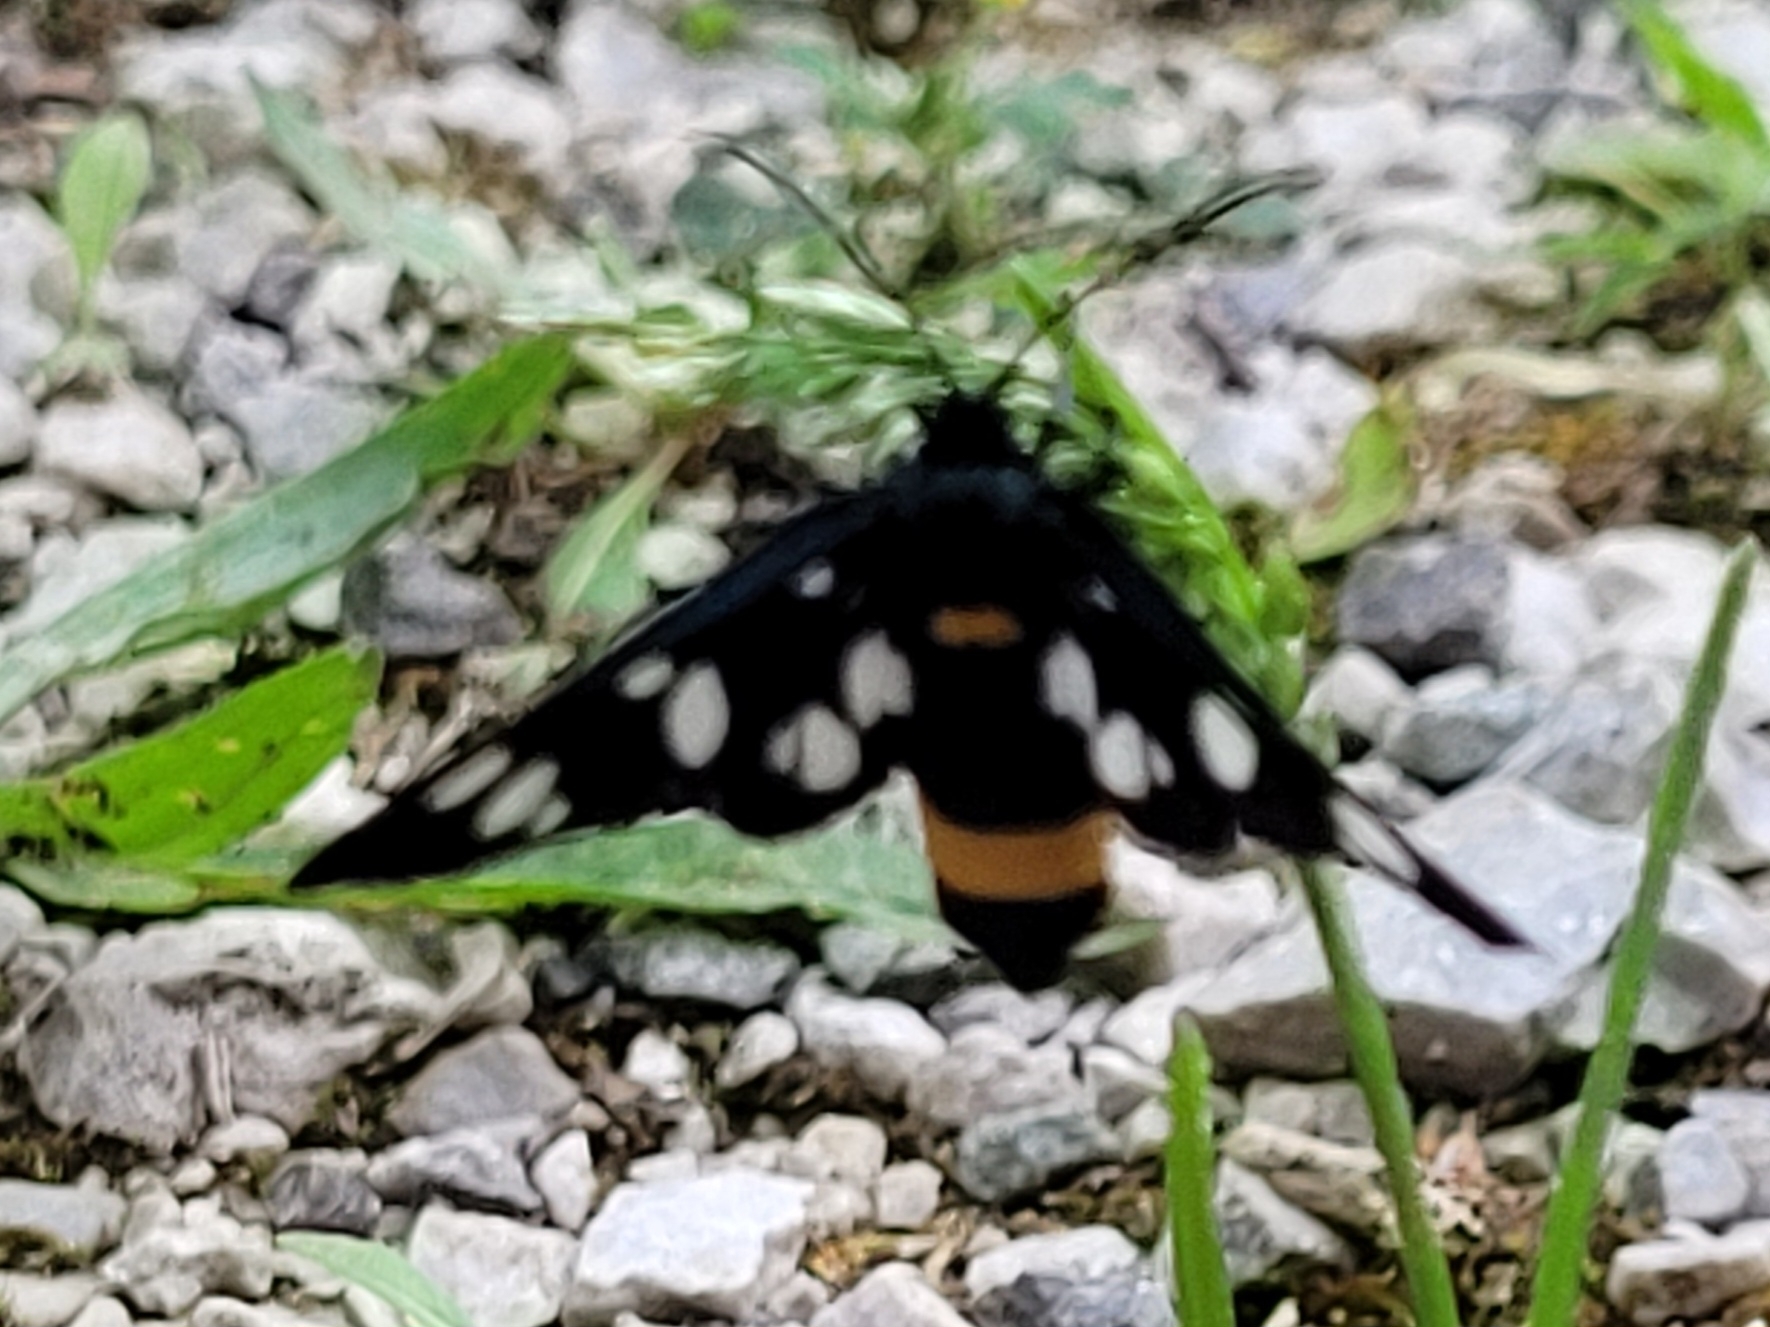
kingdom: Animalia
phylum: Arthropoda
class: Insecta
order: Lepidoptera
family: Erebidae
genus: Amata
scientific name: Amata phegea
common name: Nine-spotted
